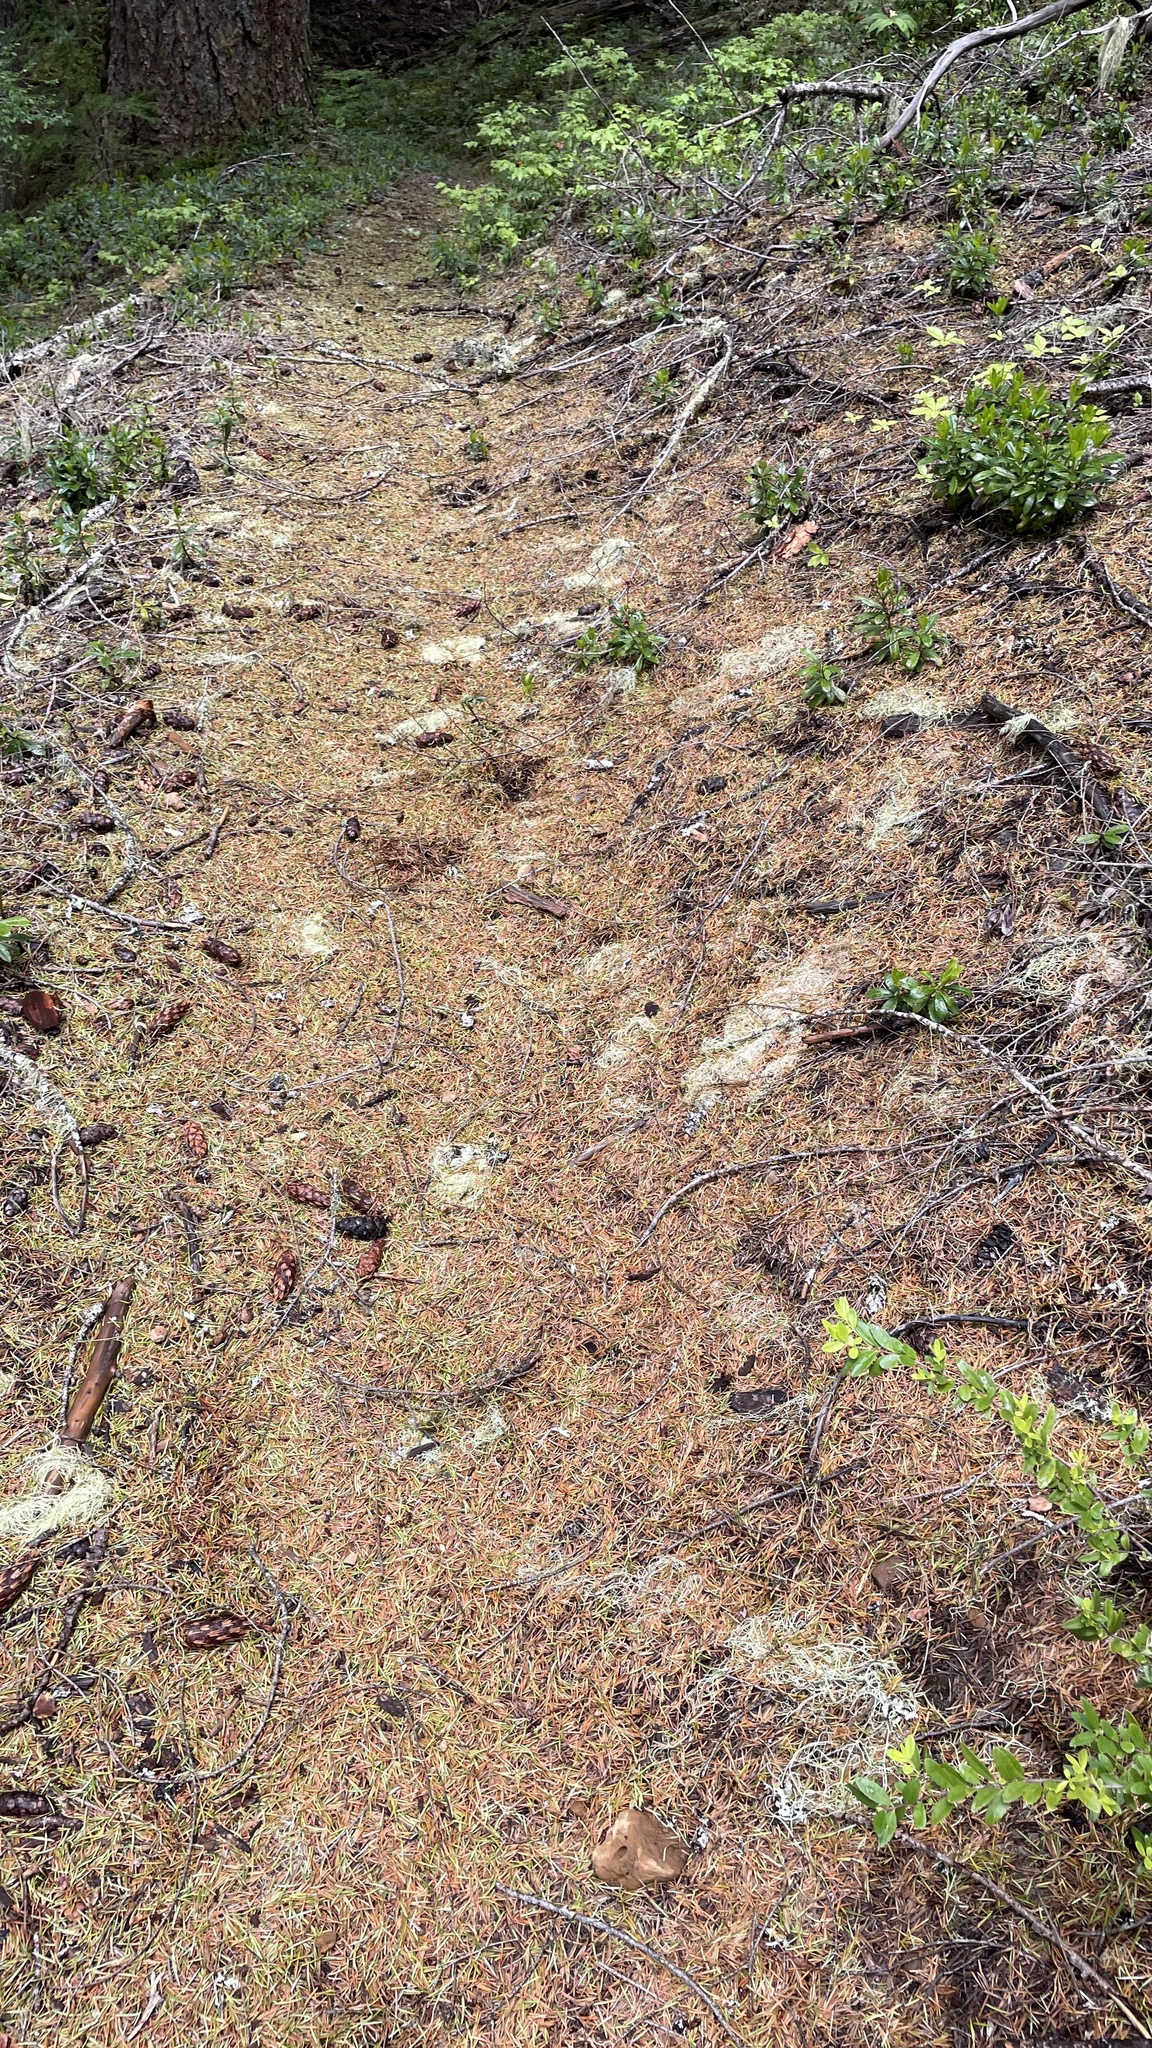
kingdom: Plantae
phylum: Tracheophyta
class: Pinopsida
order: Pinales
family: Pinaceae
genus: Pseudotsuga
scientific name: Pseudotsuga menziesii
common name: Douglas fir
